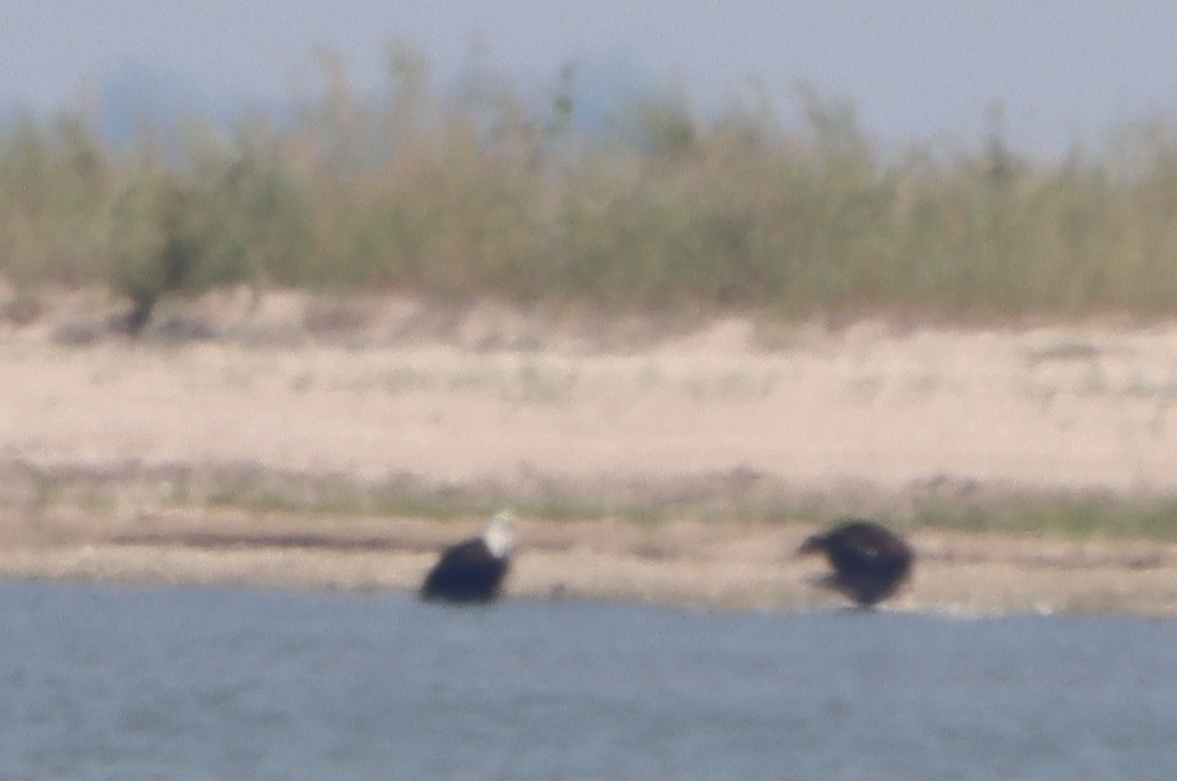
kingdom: Animalia
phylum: Chordata
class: Aves
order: Accipitriformes
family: Accipitridae
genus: Haliaeetus
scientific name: Haliaeetus leucocephalus
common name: Bald eagle
